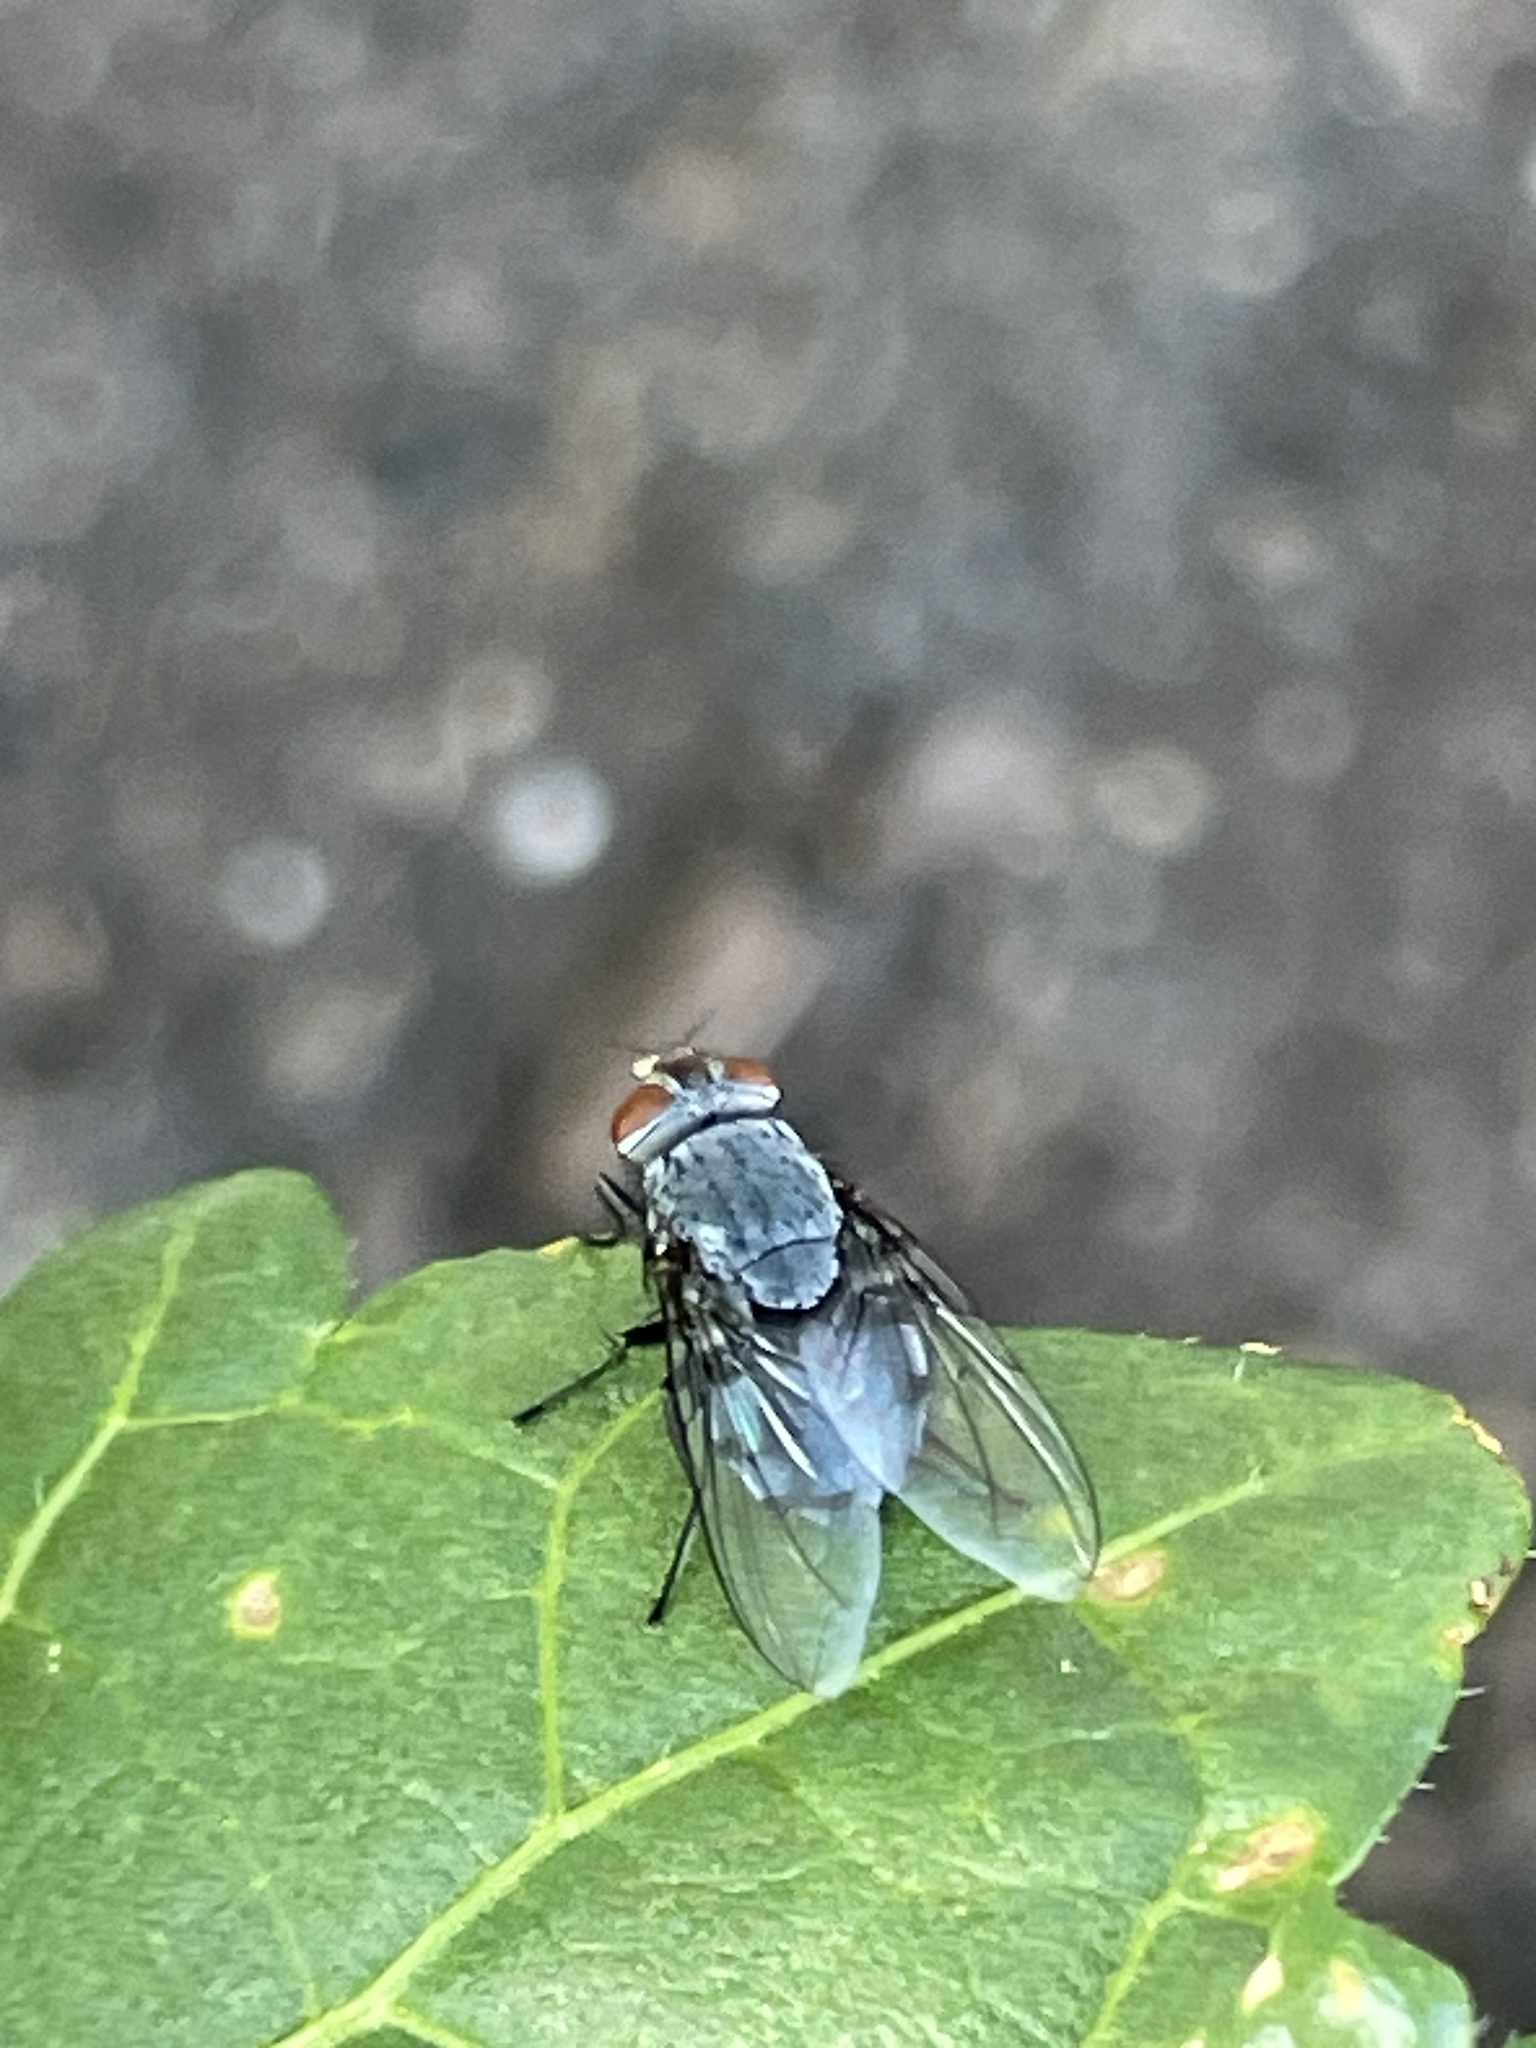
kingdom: Animalia
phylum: Arthropoda
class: Insecta
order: Diptera
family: Calliphoridae
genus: Calliphora
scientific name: Calliphora vicina
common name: Common blow flie
